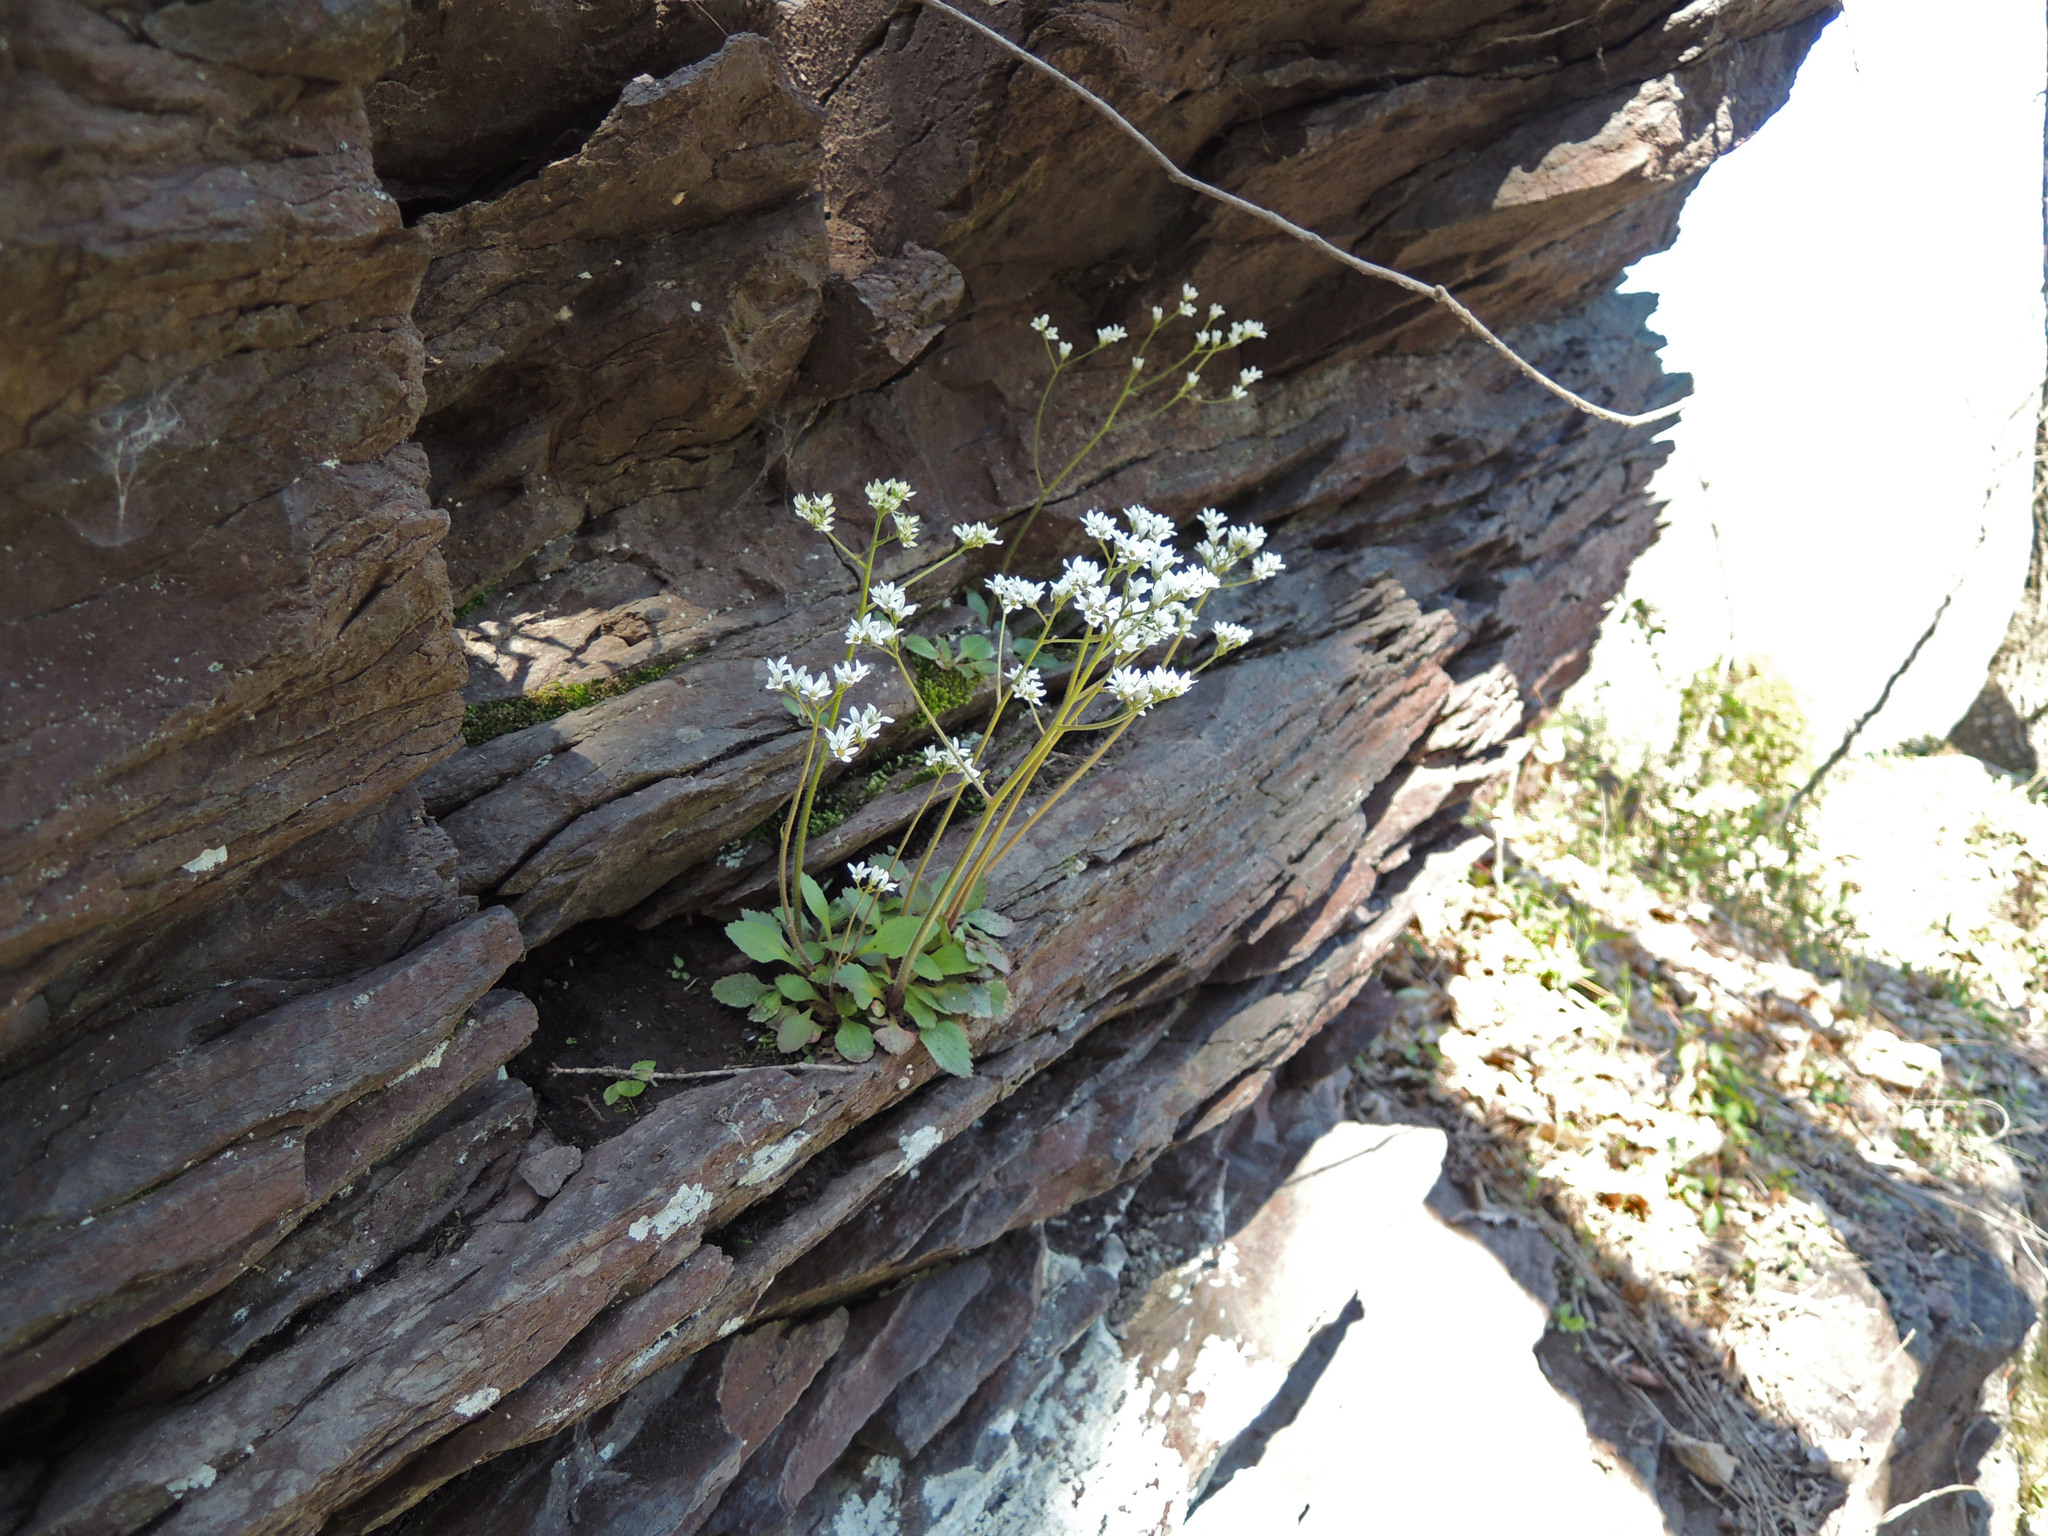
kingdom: Plantae
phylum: Tracheophyta
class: Magnoliopsida
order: Saxifragales
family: Saxifragaceae
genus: Micranthes
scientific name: Micranthes virginiensis
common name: Early saxifrage
